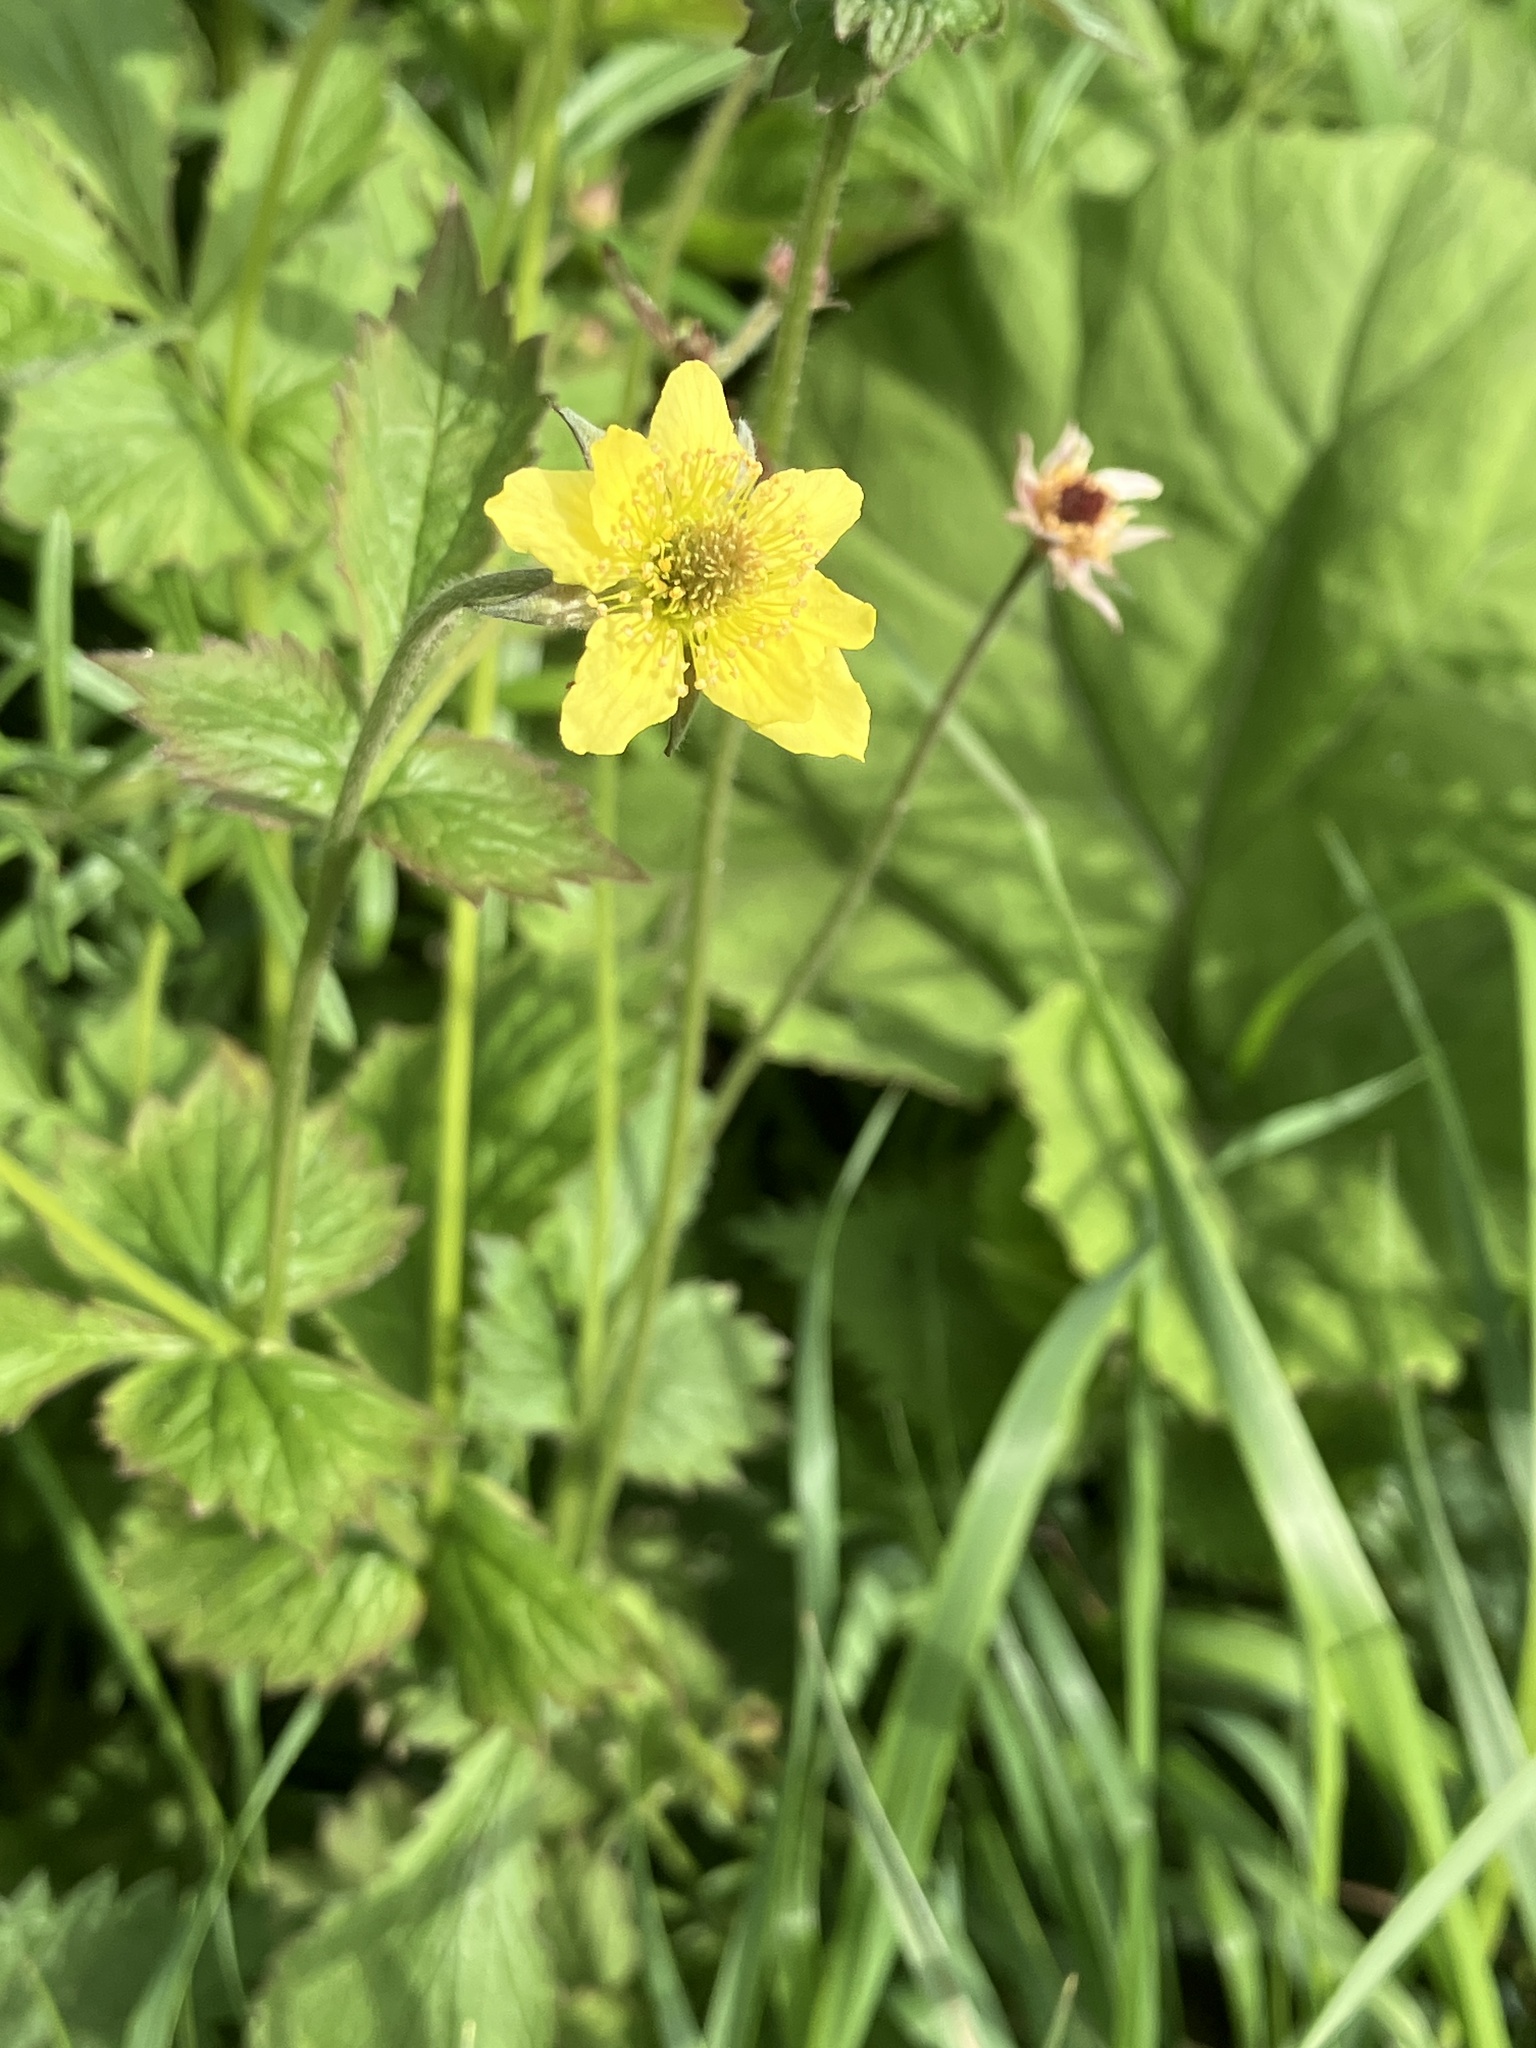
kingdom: Plantae
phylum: Tracheophyta
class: Magnoliopsida
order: Rosales
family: Rosaceae
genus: Geum
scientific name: Geum urbanum
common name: Wood avens
